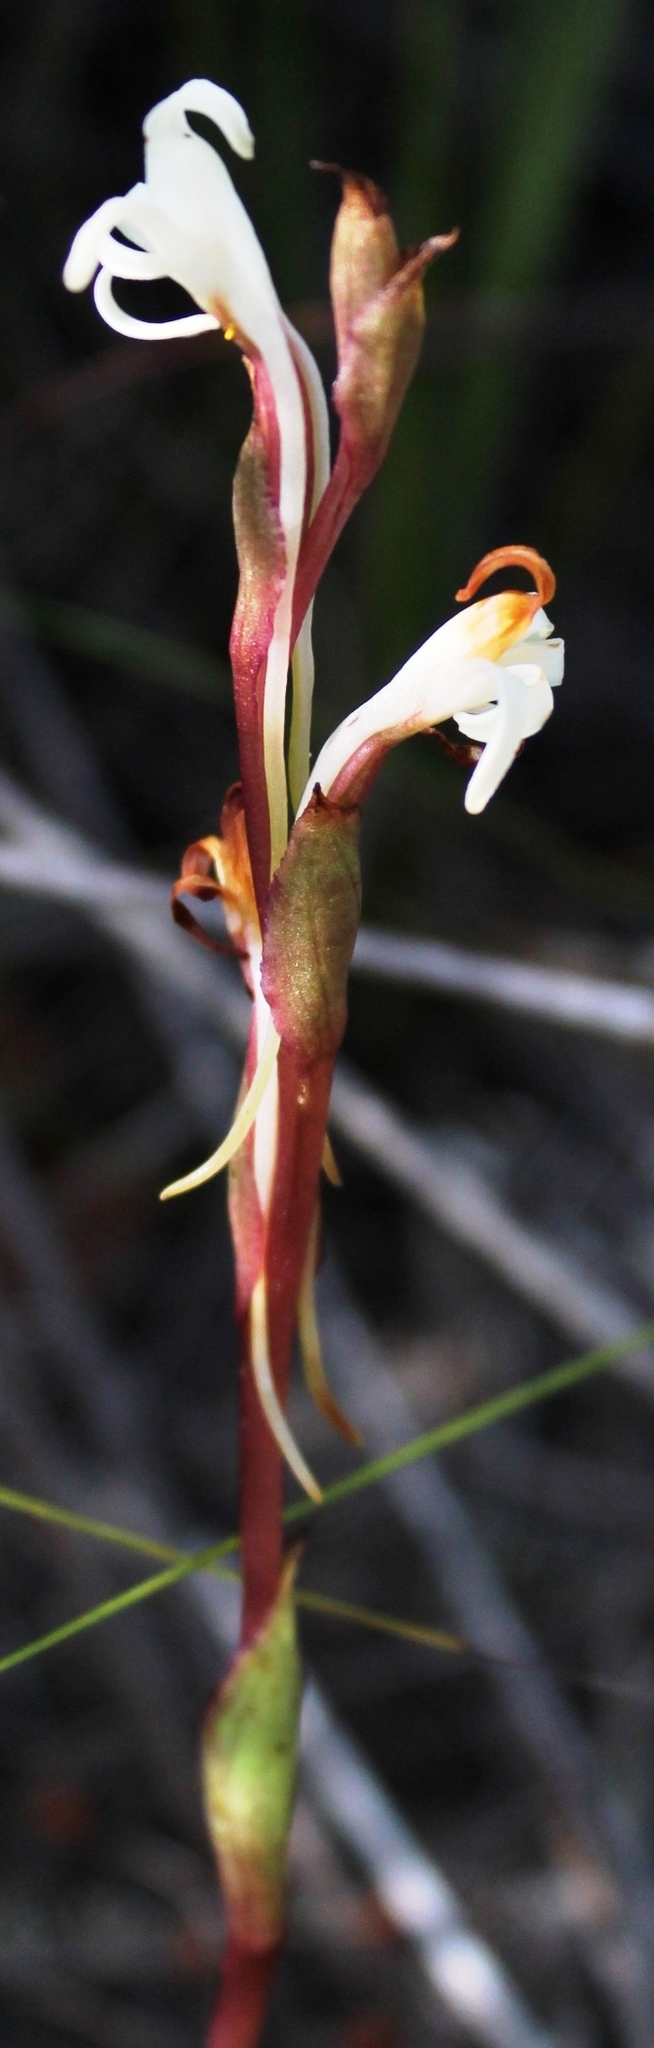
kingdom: Plantae
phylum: Tracheophyta
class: Liliopsida
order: Asparagales
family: Orchidaceae
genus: Satyrium
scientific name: Satyrium stenopetalum
